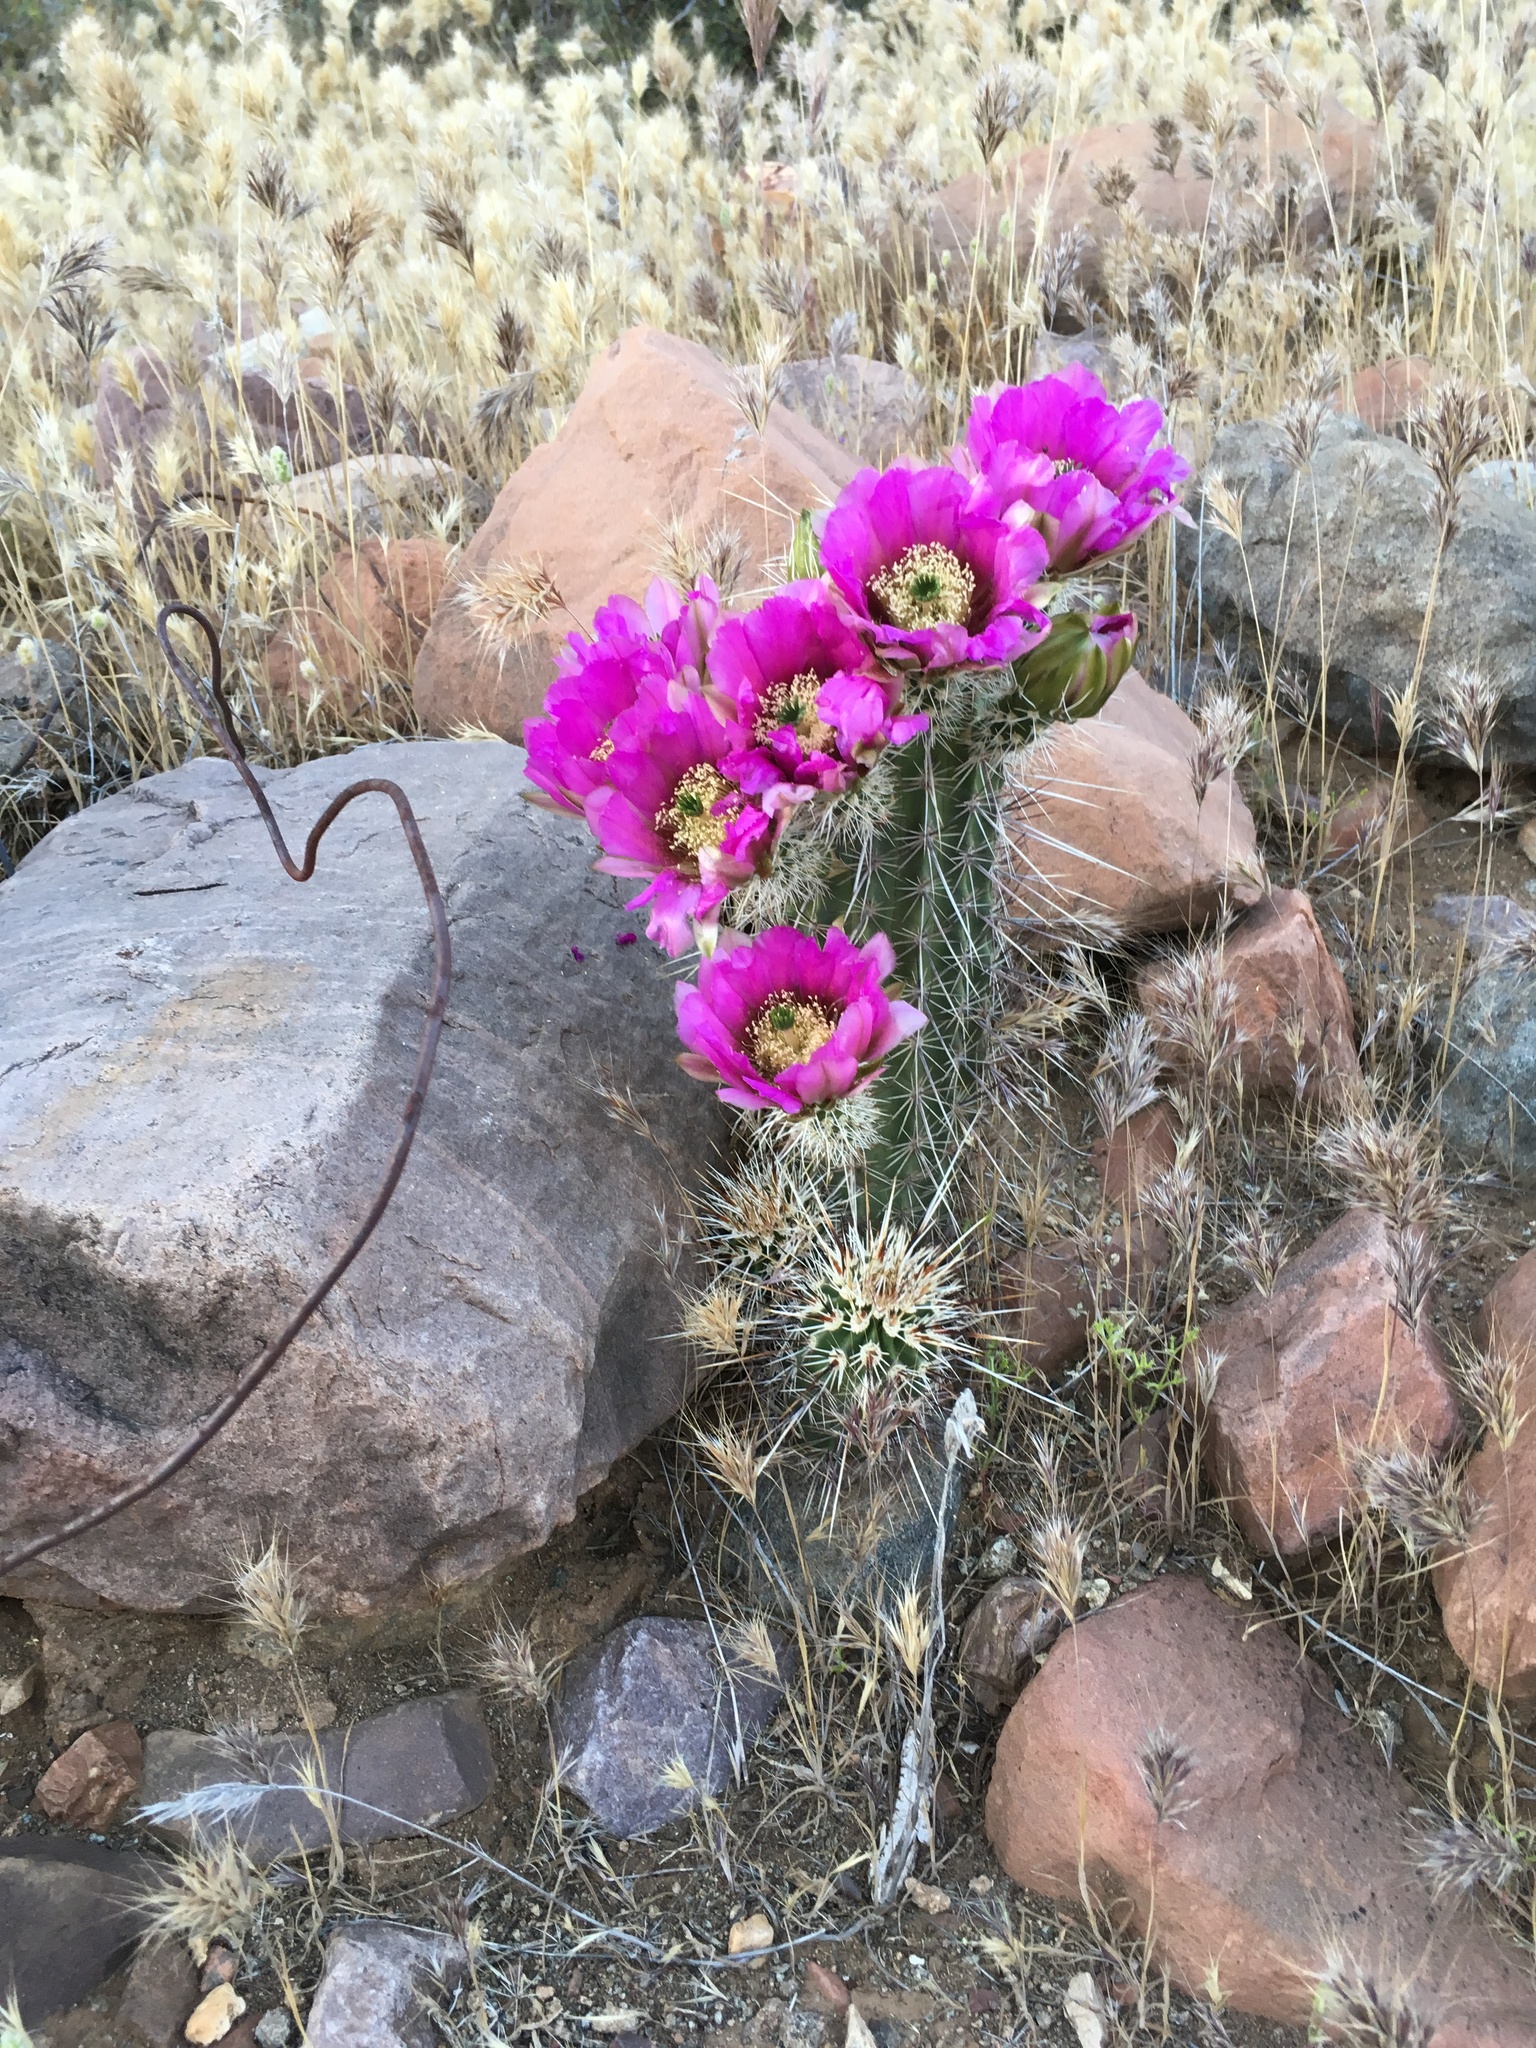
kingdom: Plantae
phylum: Tracheophyta
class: Magnoliopsida
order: Caryophyllales
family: Cactaceae
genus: Echinocereus
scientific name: Echinocereus fasciculatus
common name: Bundle hedgehog
